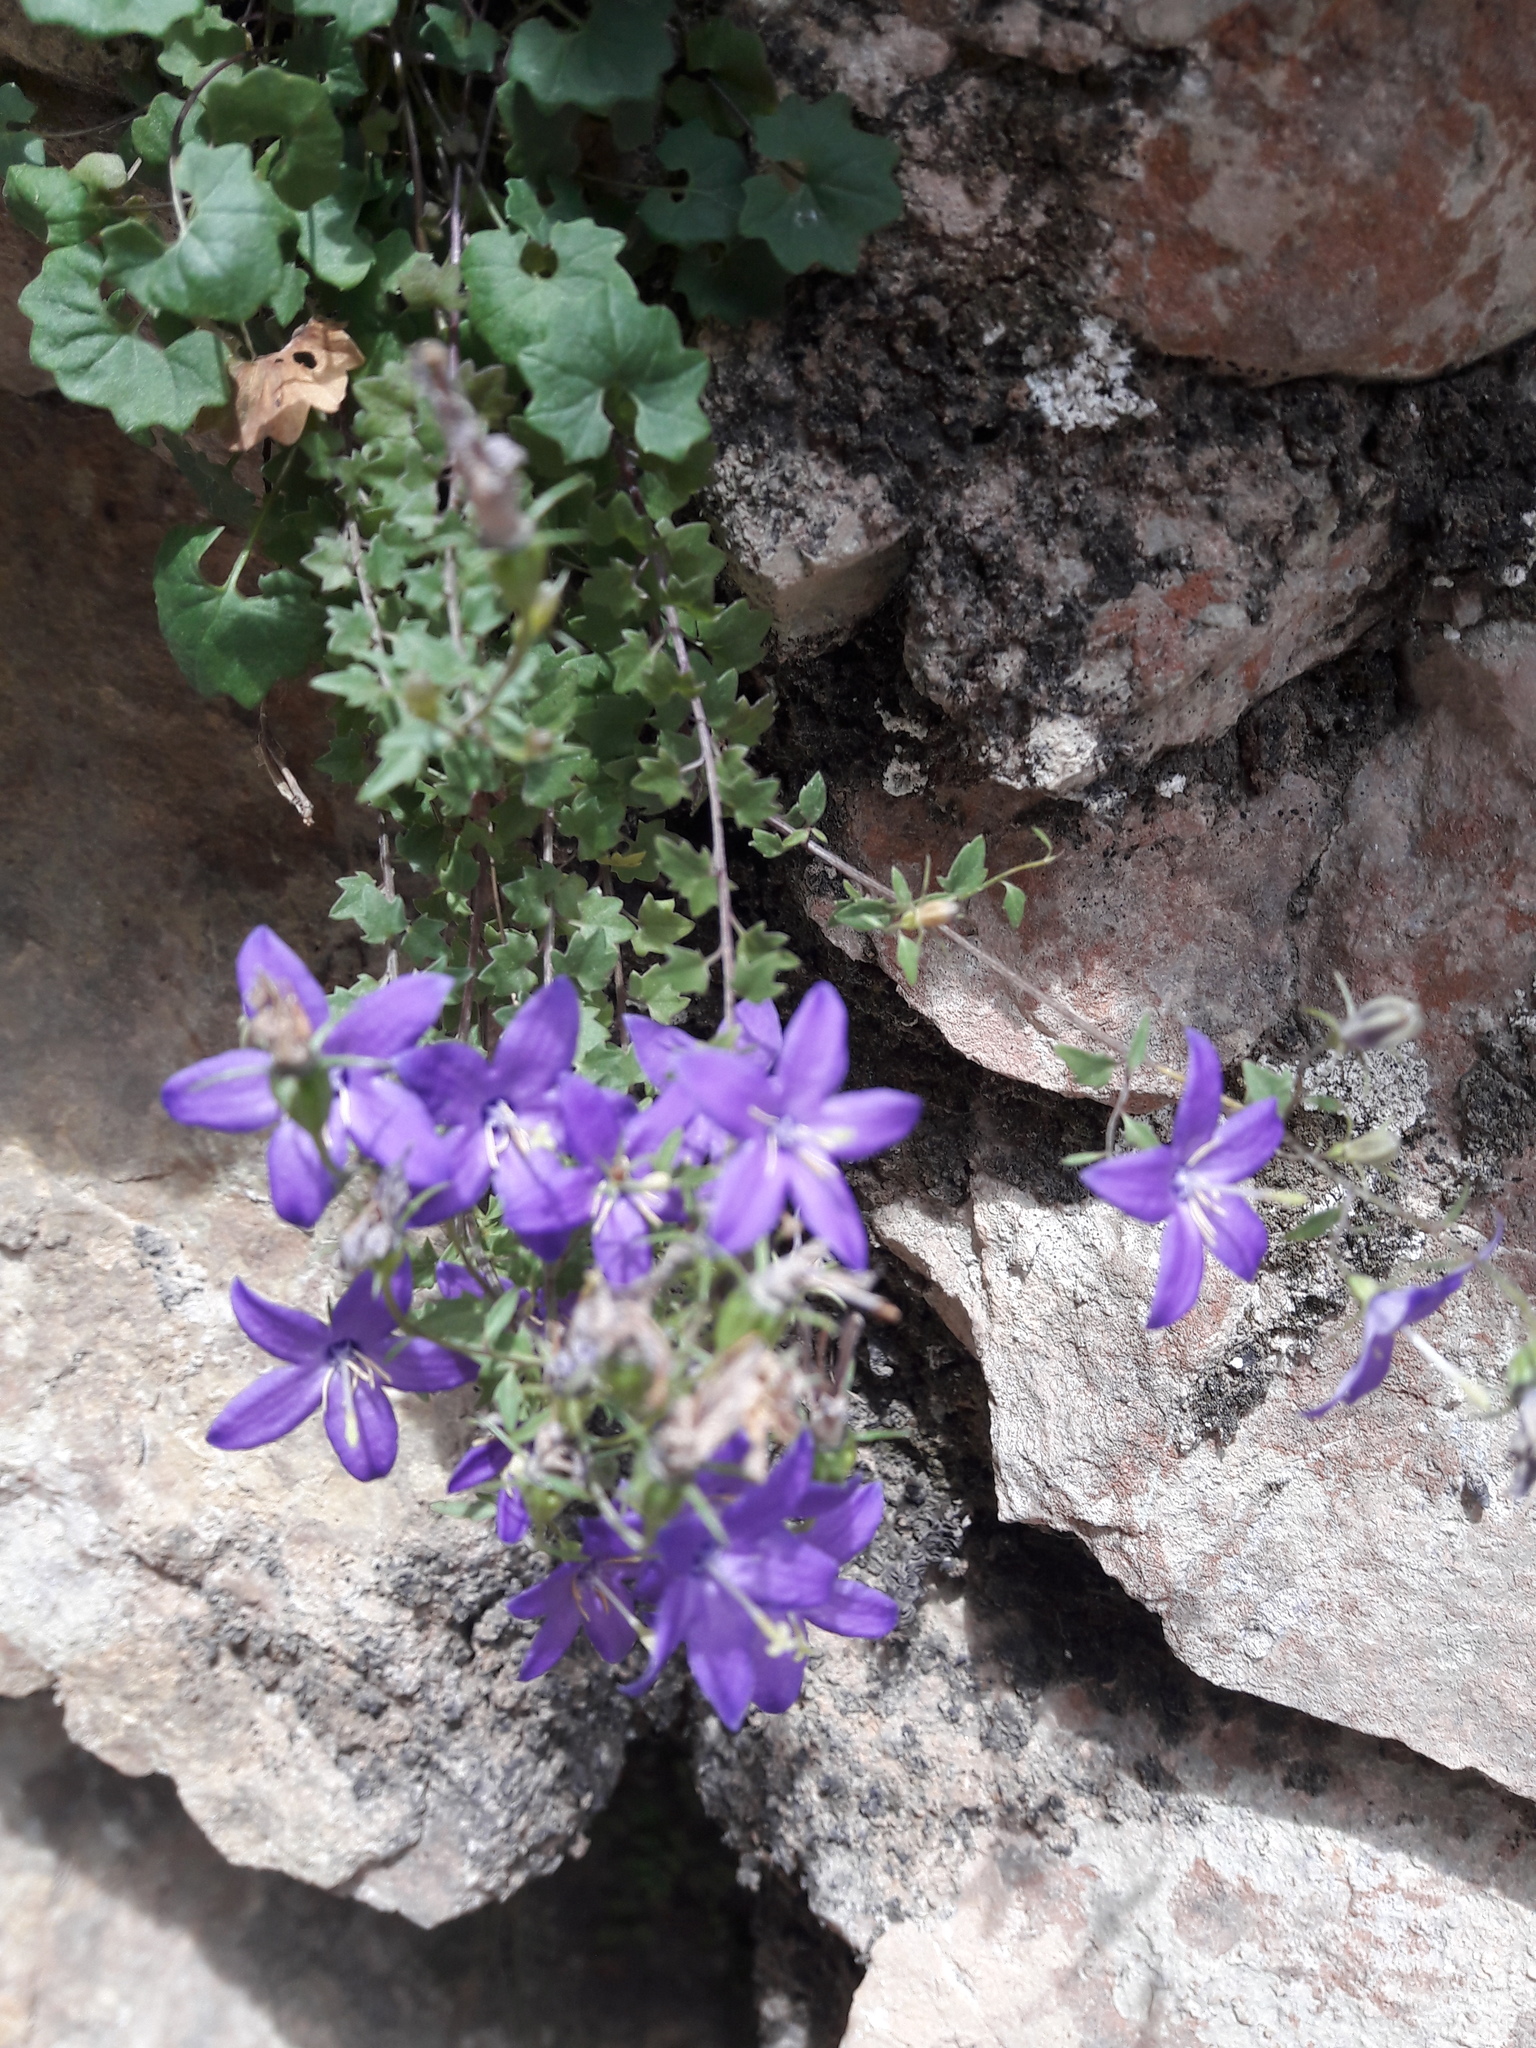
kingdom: Plantae
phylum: Tracheophyta
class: Magnoliopsida
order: Asterales
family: Campanulaceae
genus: Campanula
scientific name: Campanula arvatica
